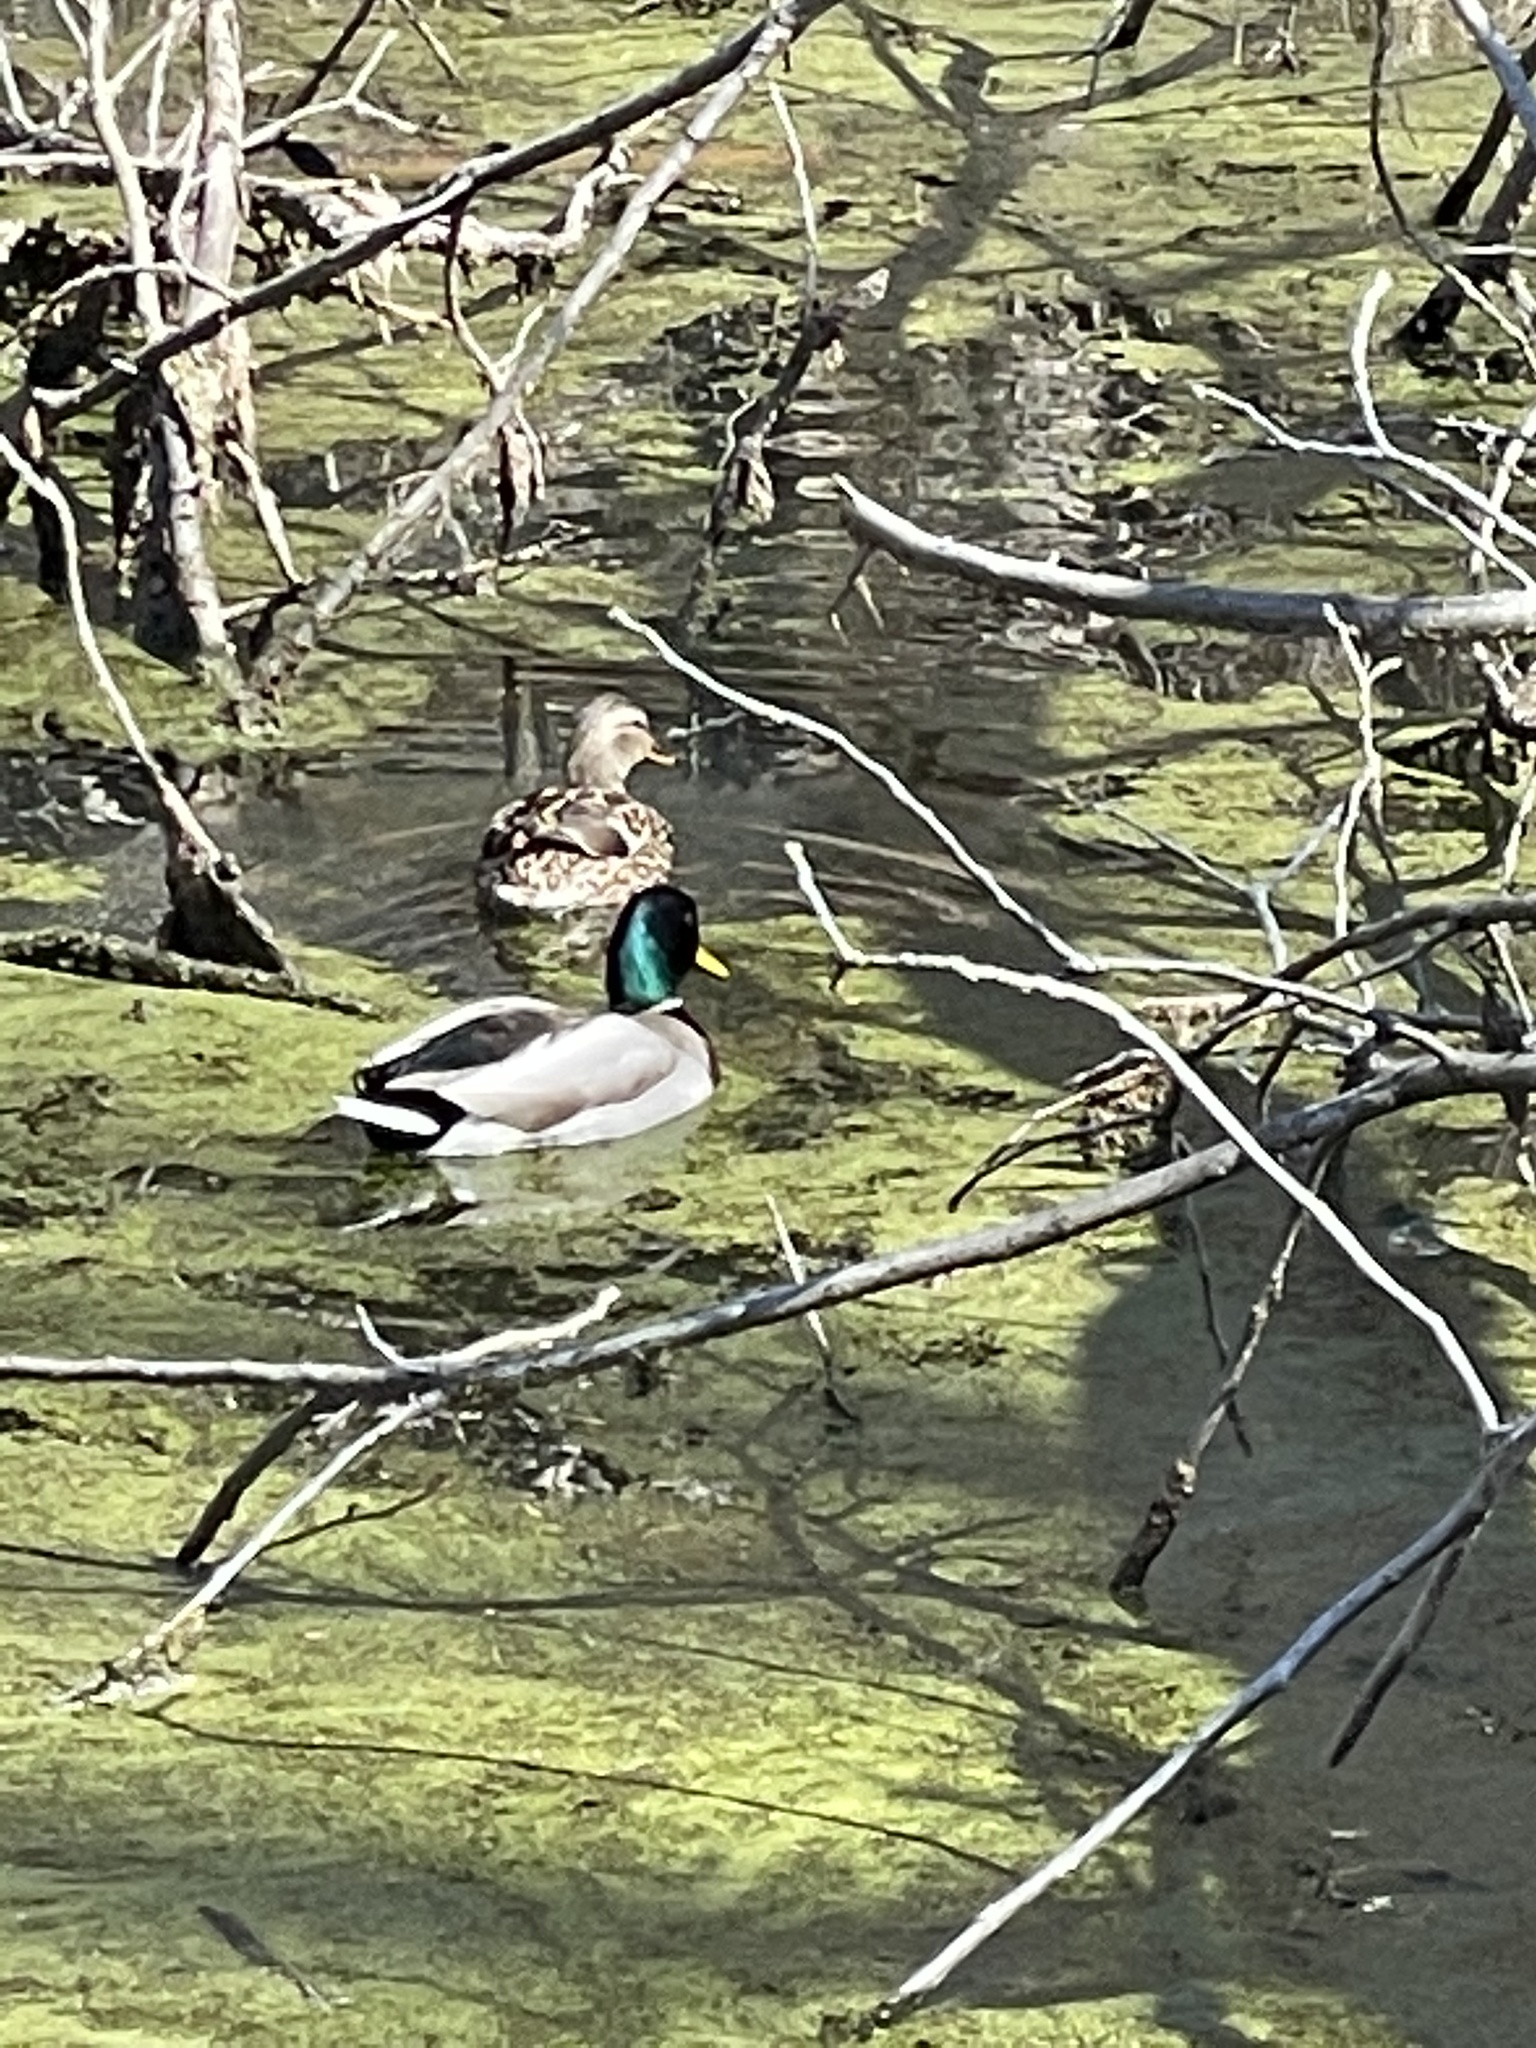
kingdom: Animalia
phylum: Chordata
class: Aves
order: Anseriformes
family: Anatidae
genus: Anas
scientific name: Anas platyrhynchos
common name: Mallard
